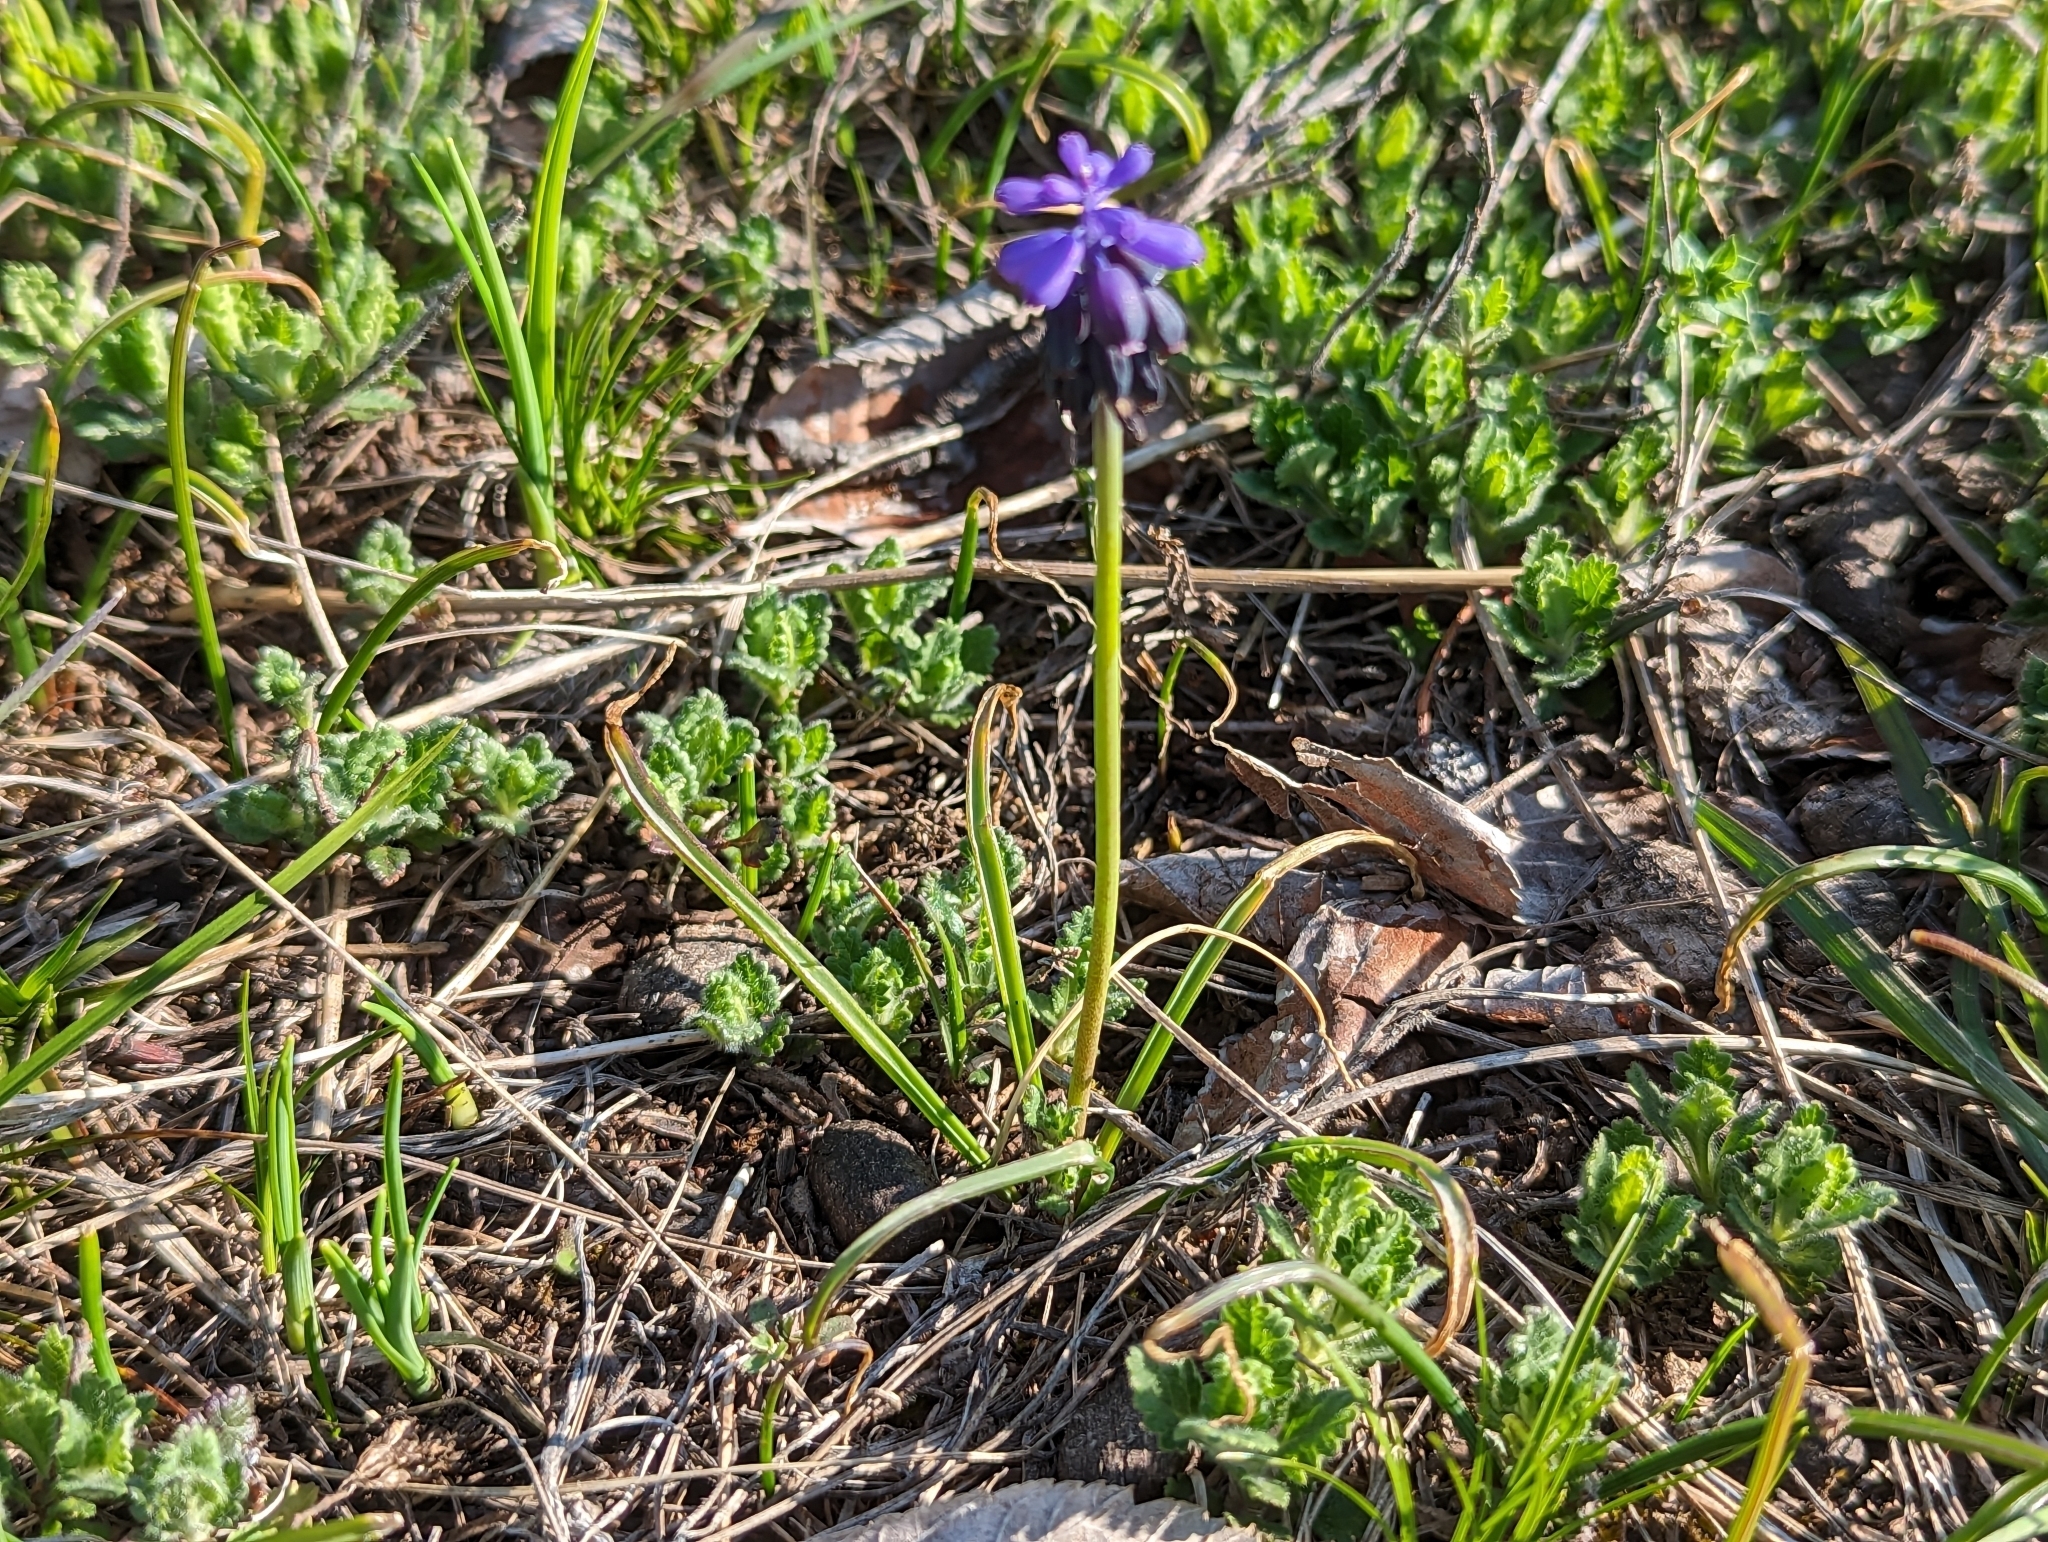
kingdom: Plantae
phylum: Tracheophyta
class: Liliopsida
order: Asparagales
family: Asparagaceae
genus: Muscari
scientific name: Muscari neglectum
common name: Grape-hyacinth
